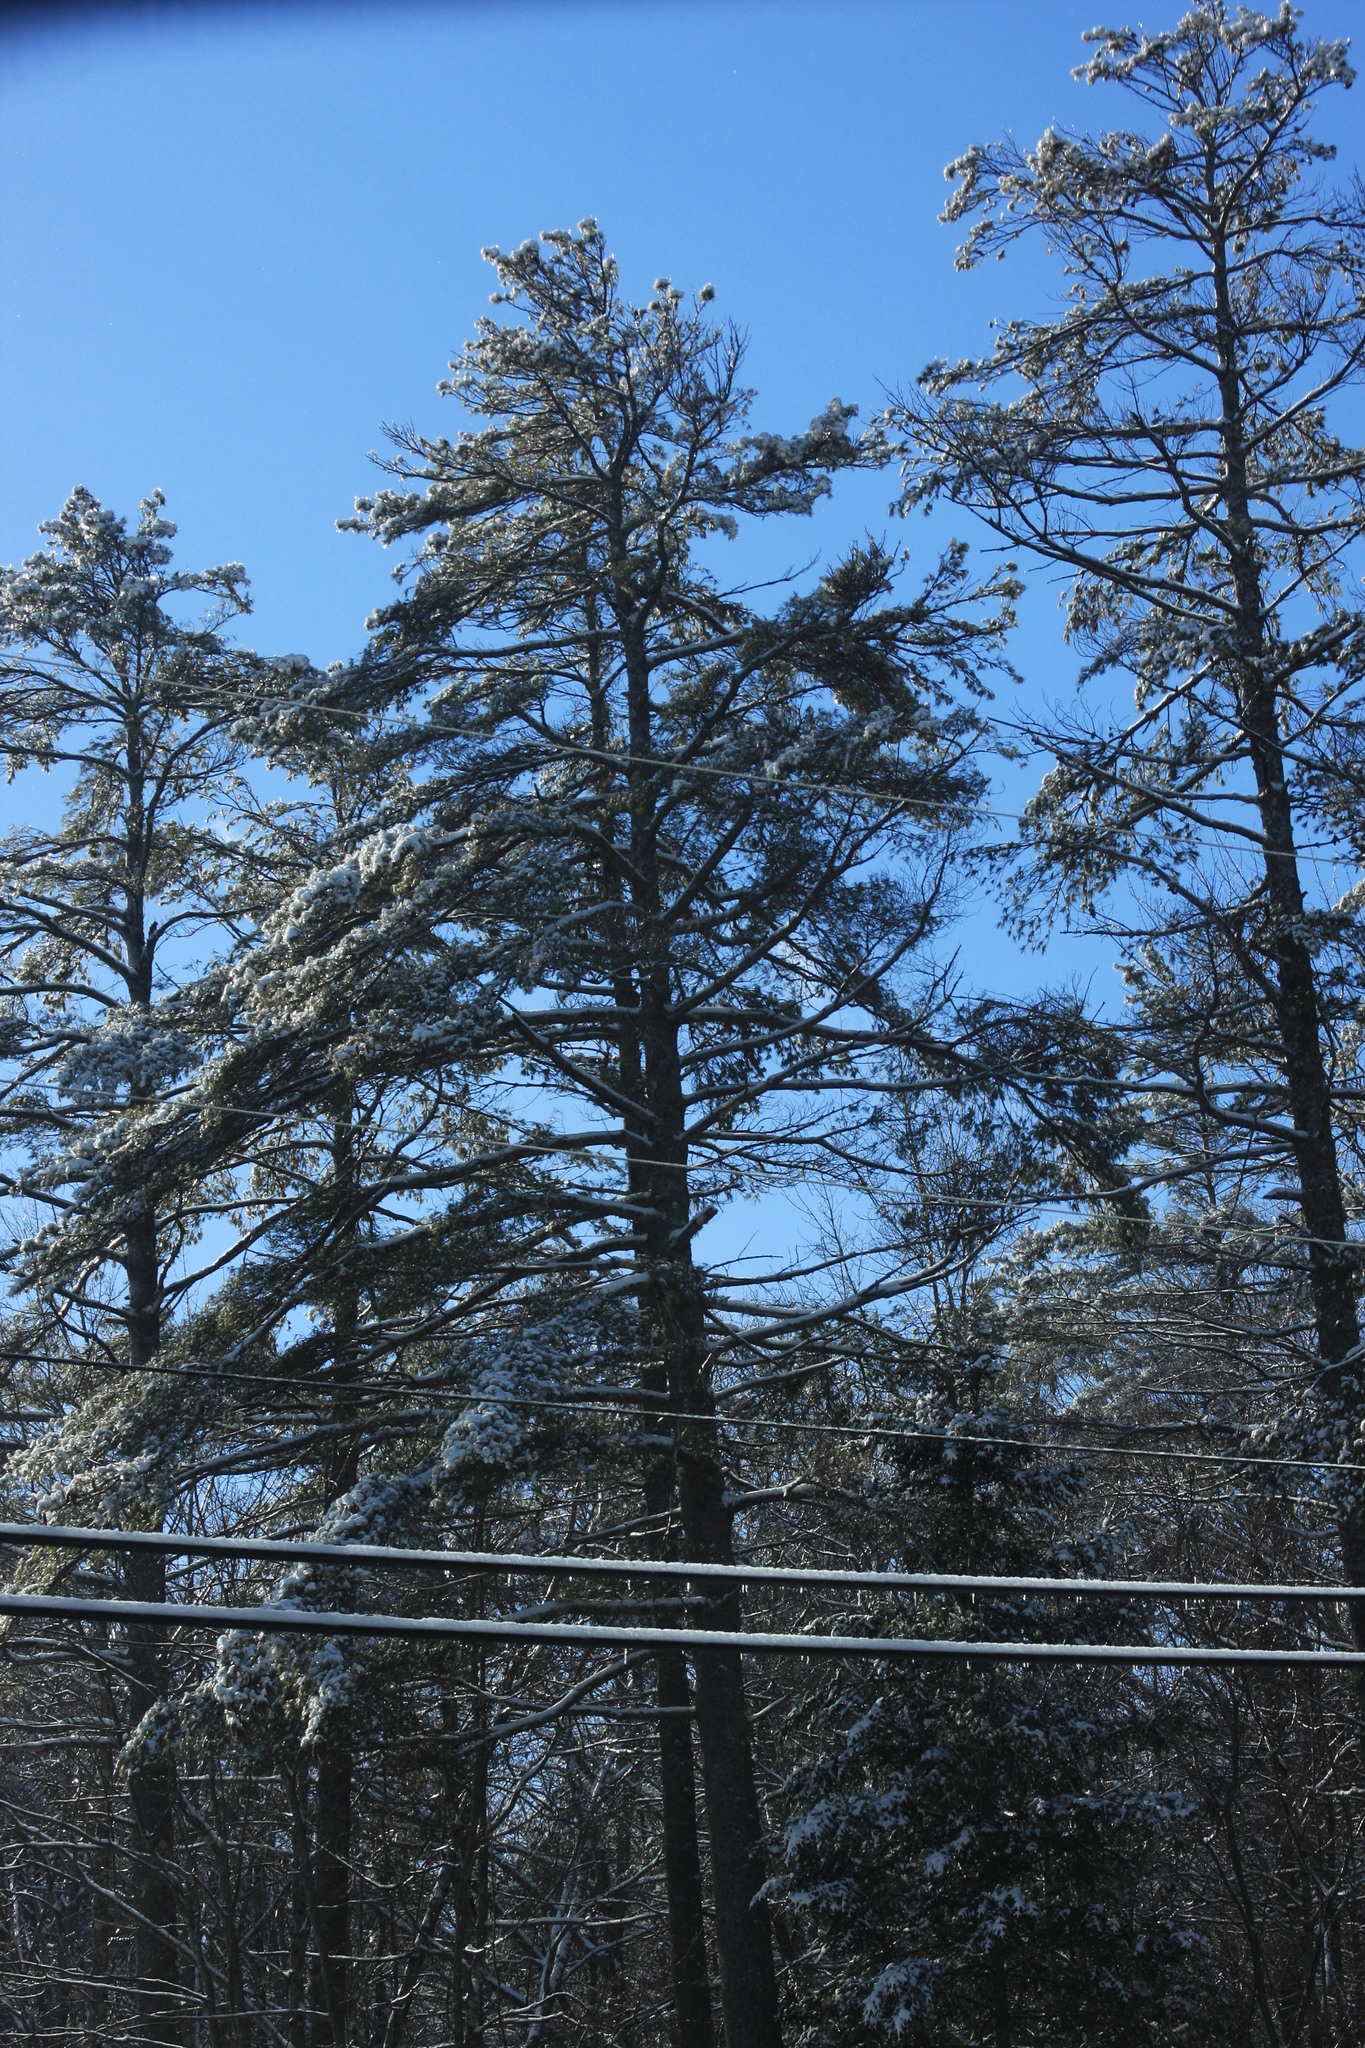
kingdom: Plantae
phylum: Tracheophyta
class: Pinopsida
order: Pinales
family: Pinaceae
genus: Pinus
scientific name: Pinus strobus
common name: Weymouth pine
